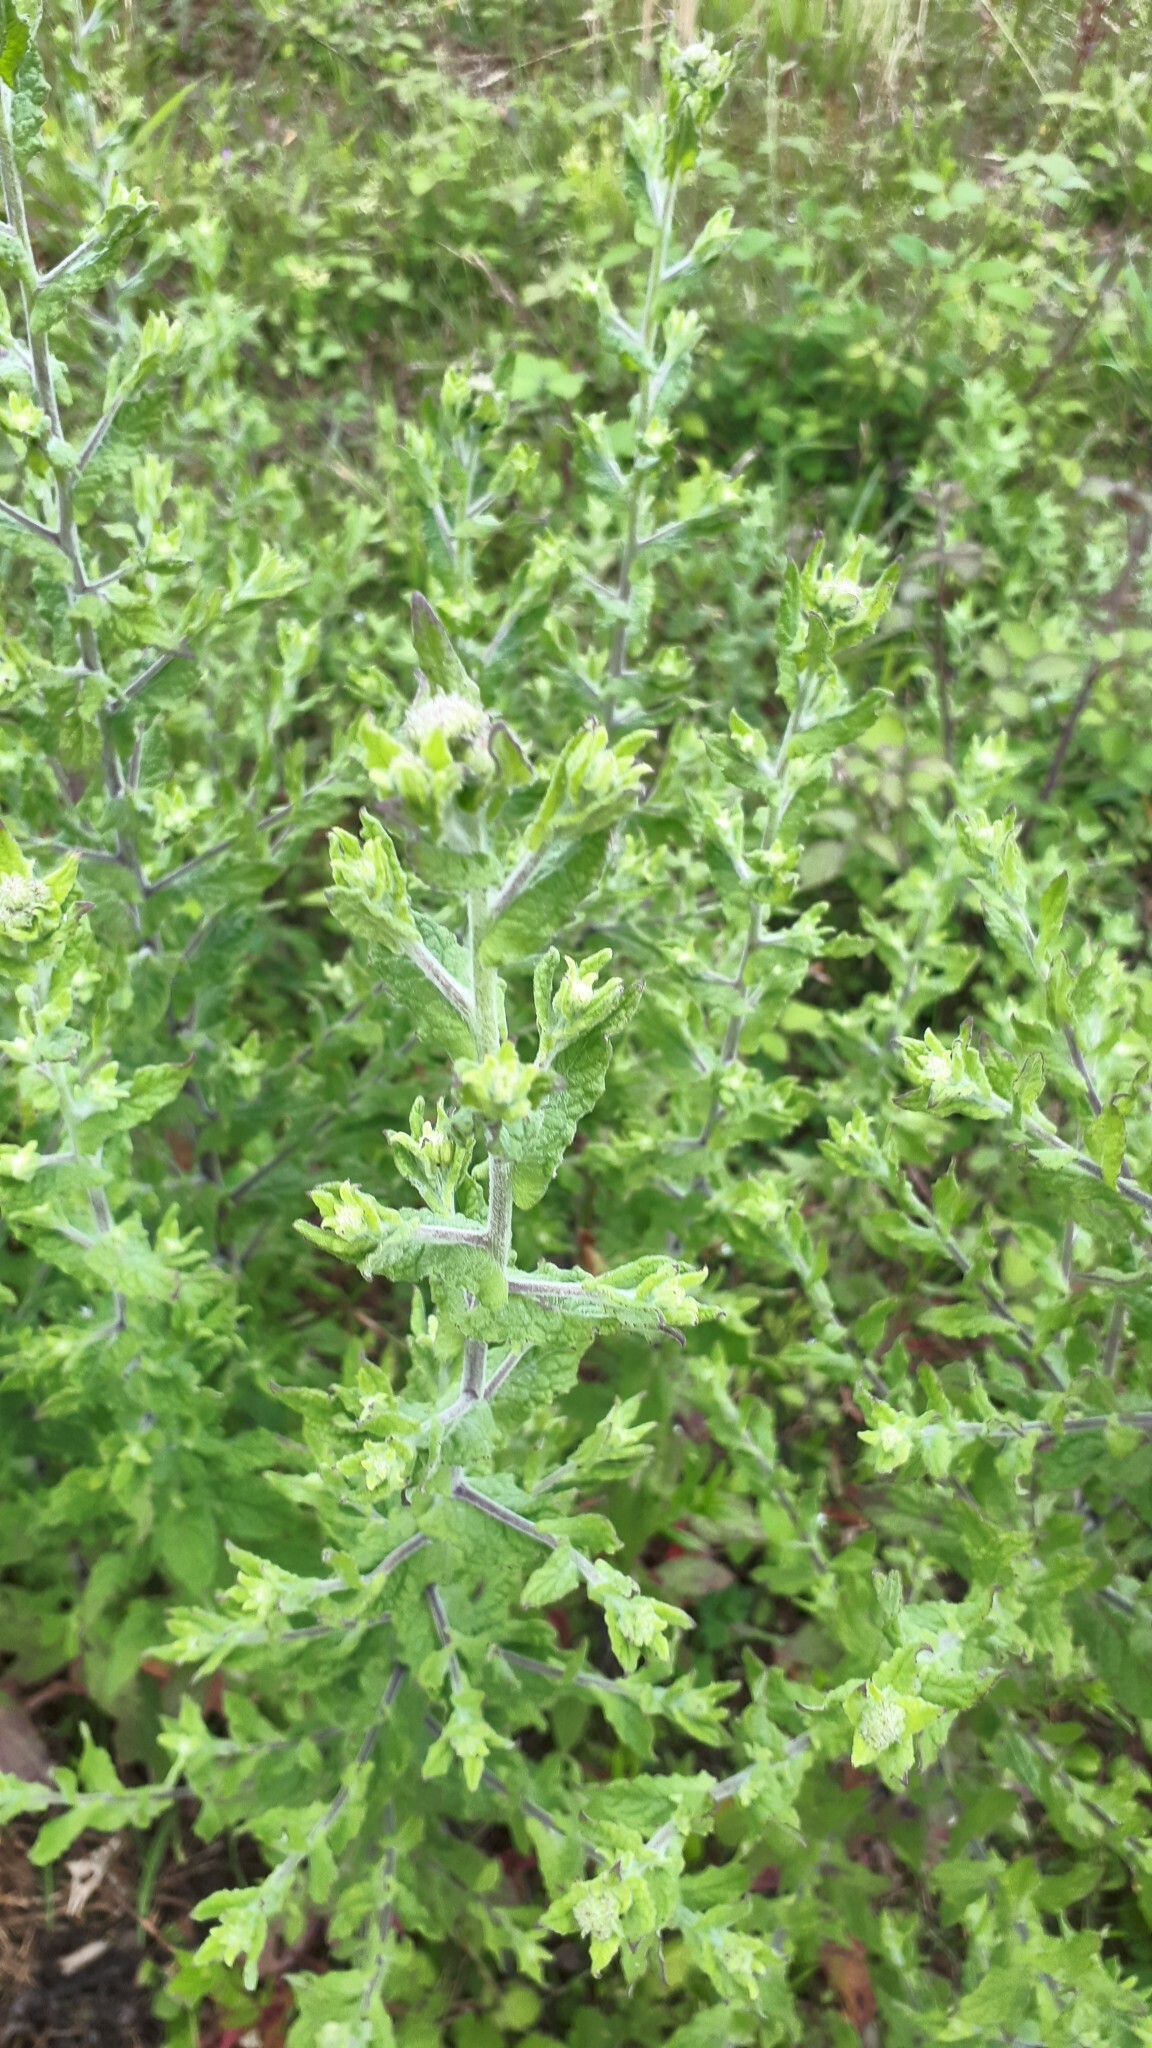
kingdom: Plantae
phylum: Tracheophyta
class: Magnoliopsida
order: Asterales
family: Asteraceae
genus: Pulicaria
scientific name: Pulicaria dysenterica
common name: Common fleabane
